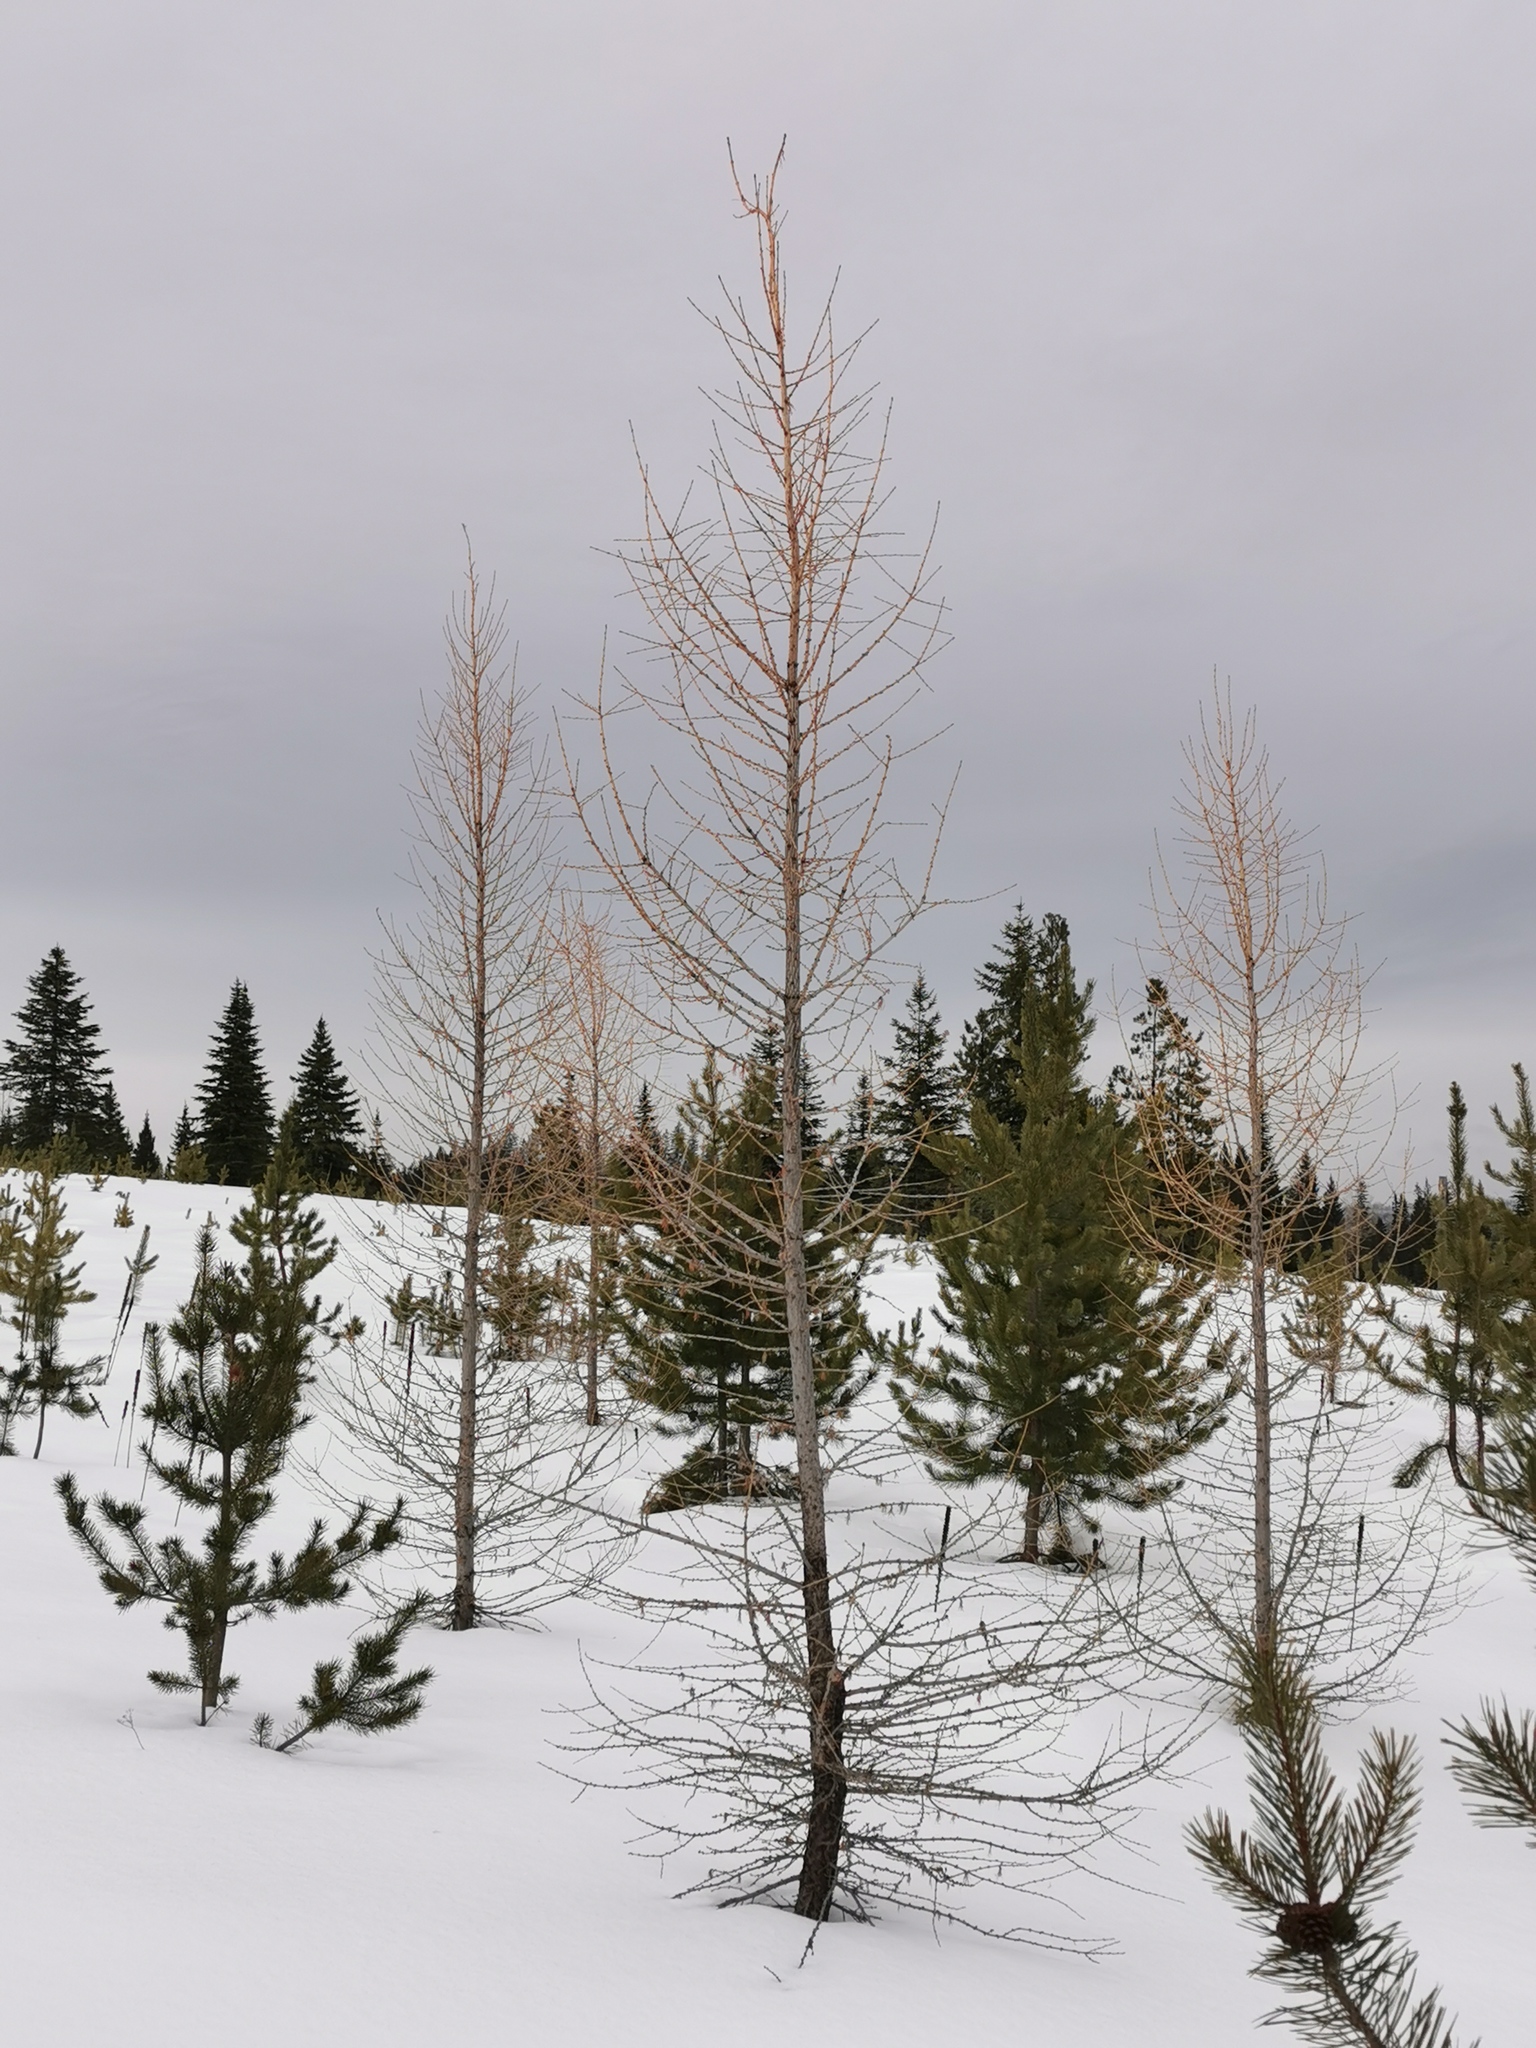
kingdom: Plantae
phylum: Tracheophyta
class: Pinopsida
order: Pinales
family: Pinaceae
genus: Larix
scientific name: Larix occidentalis
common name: Western larch
